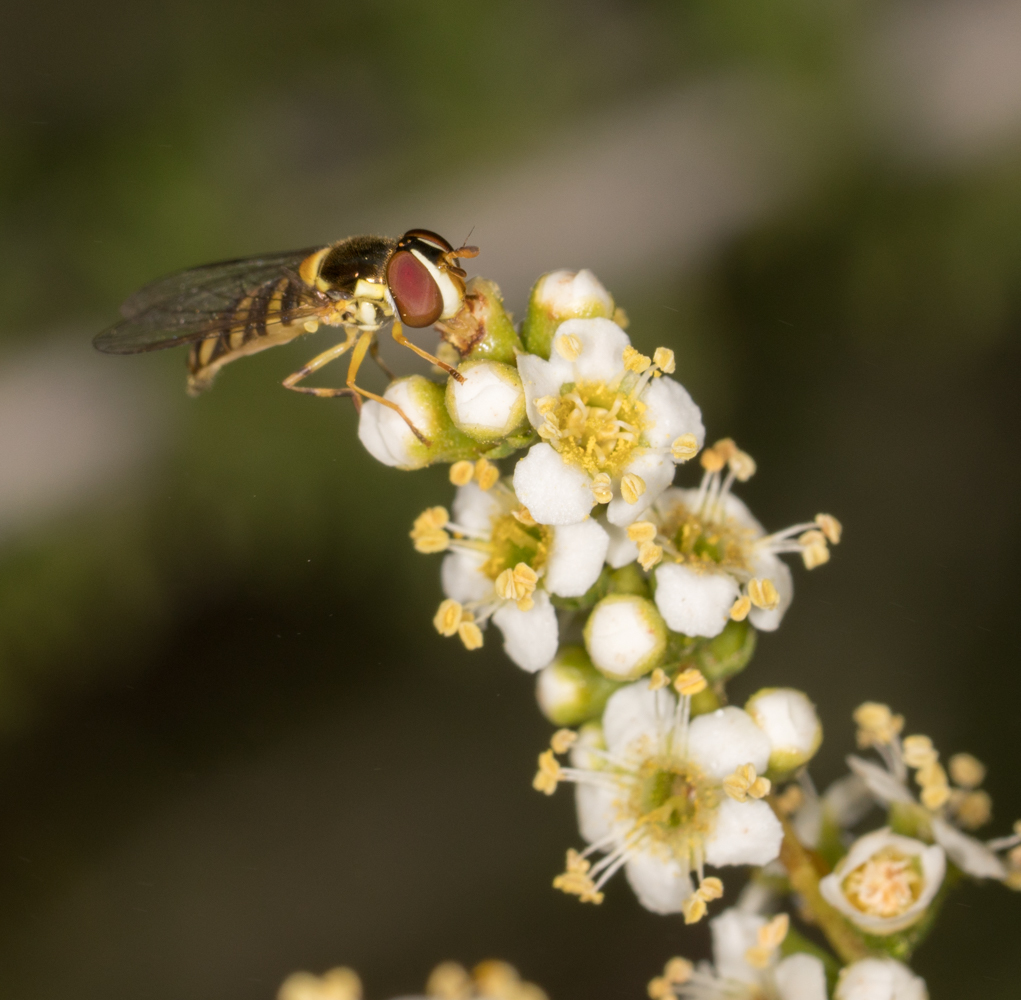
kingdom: Animalia
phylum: Arthropoda
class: Insecta
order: Diptera
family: Syrphidae
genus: Allograpta
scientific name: Allograpta obliqua
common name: Common oblique syrphid
